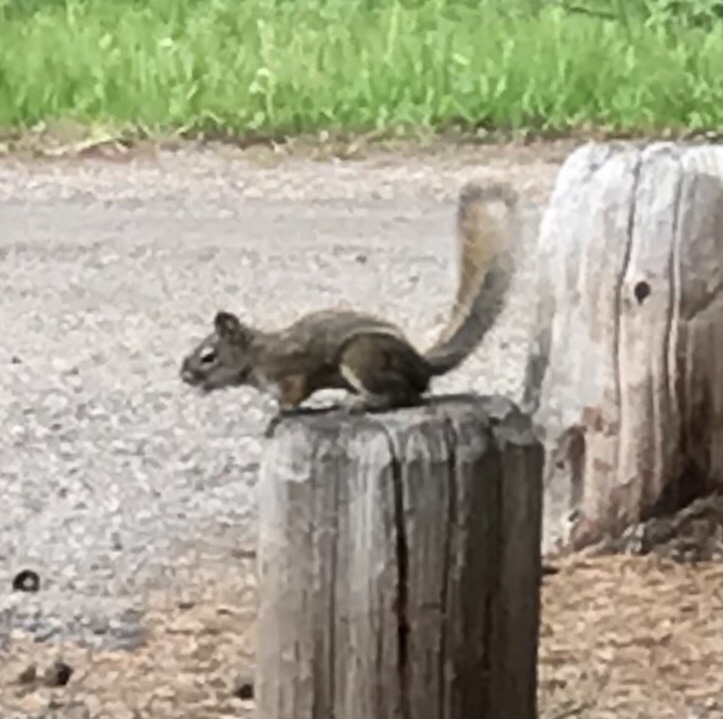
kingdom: Animalia
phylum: Chordata
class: Mammalia
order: Rodentia
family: Sciuridae
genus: Tamiasciurus
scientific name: Tamiasciurus hudsonicus
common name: Red squirrel
